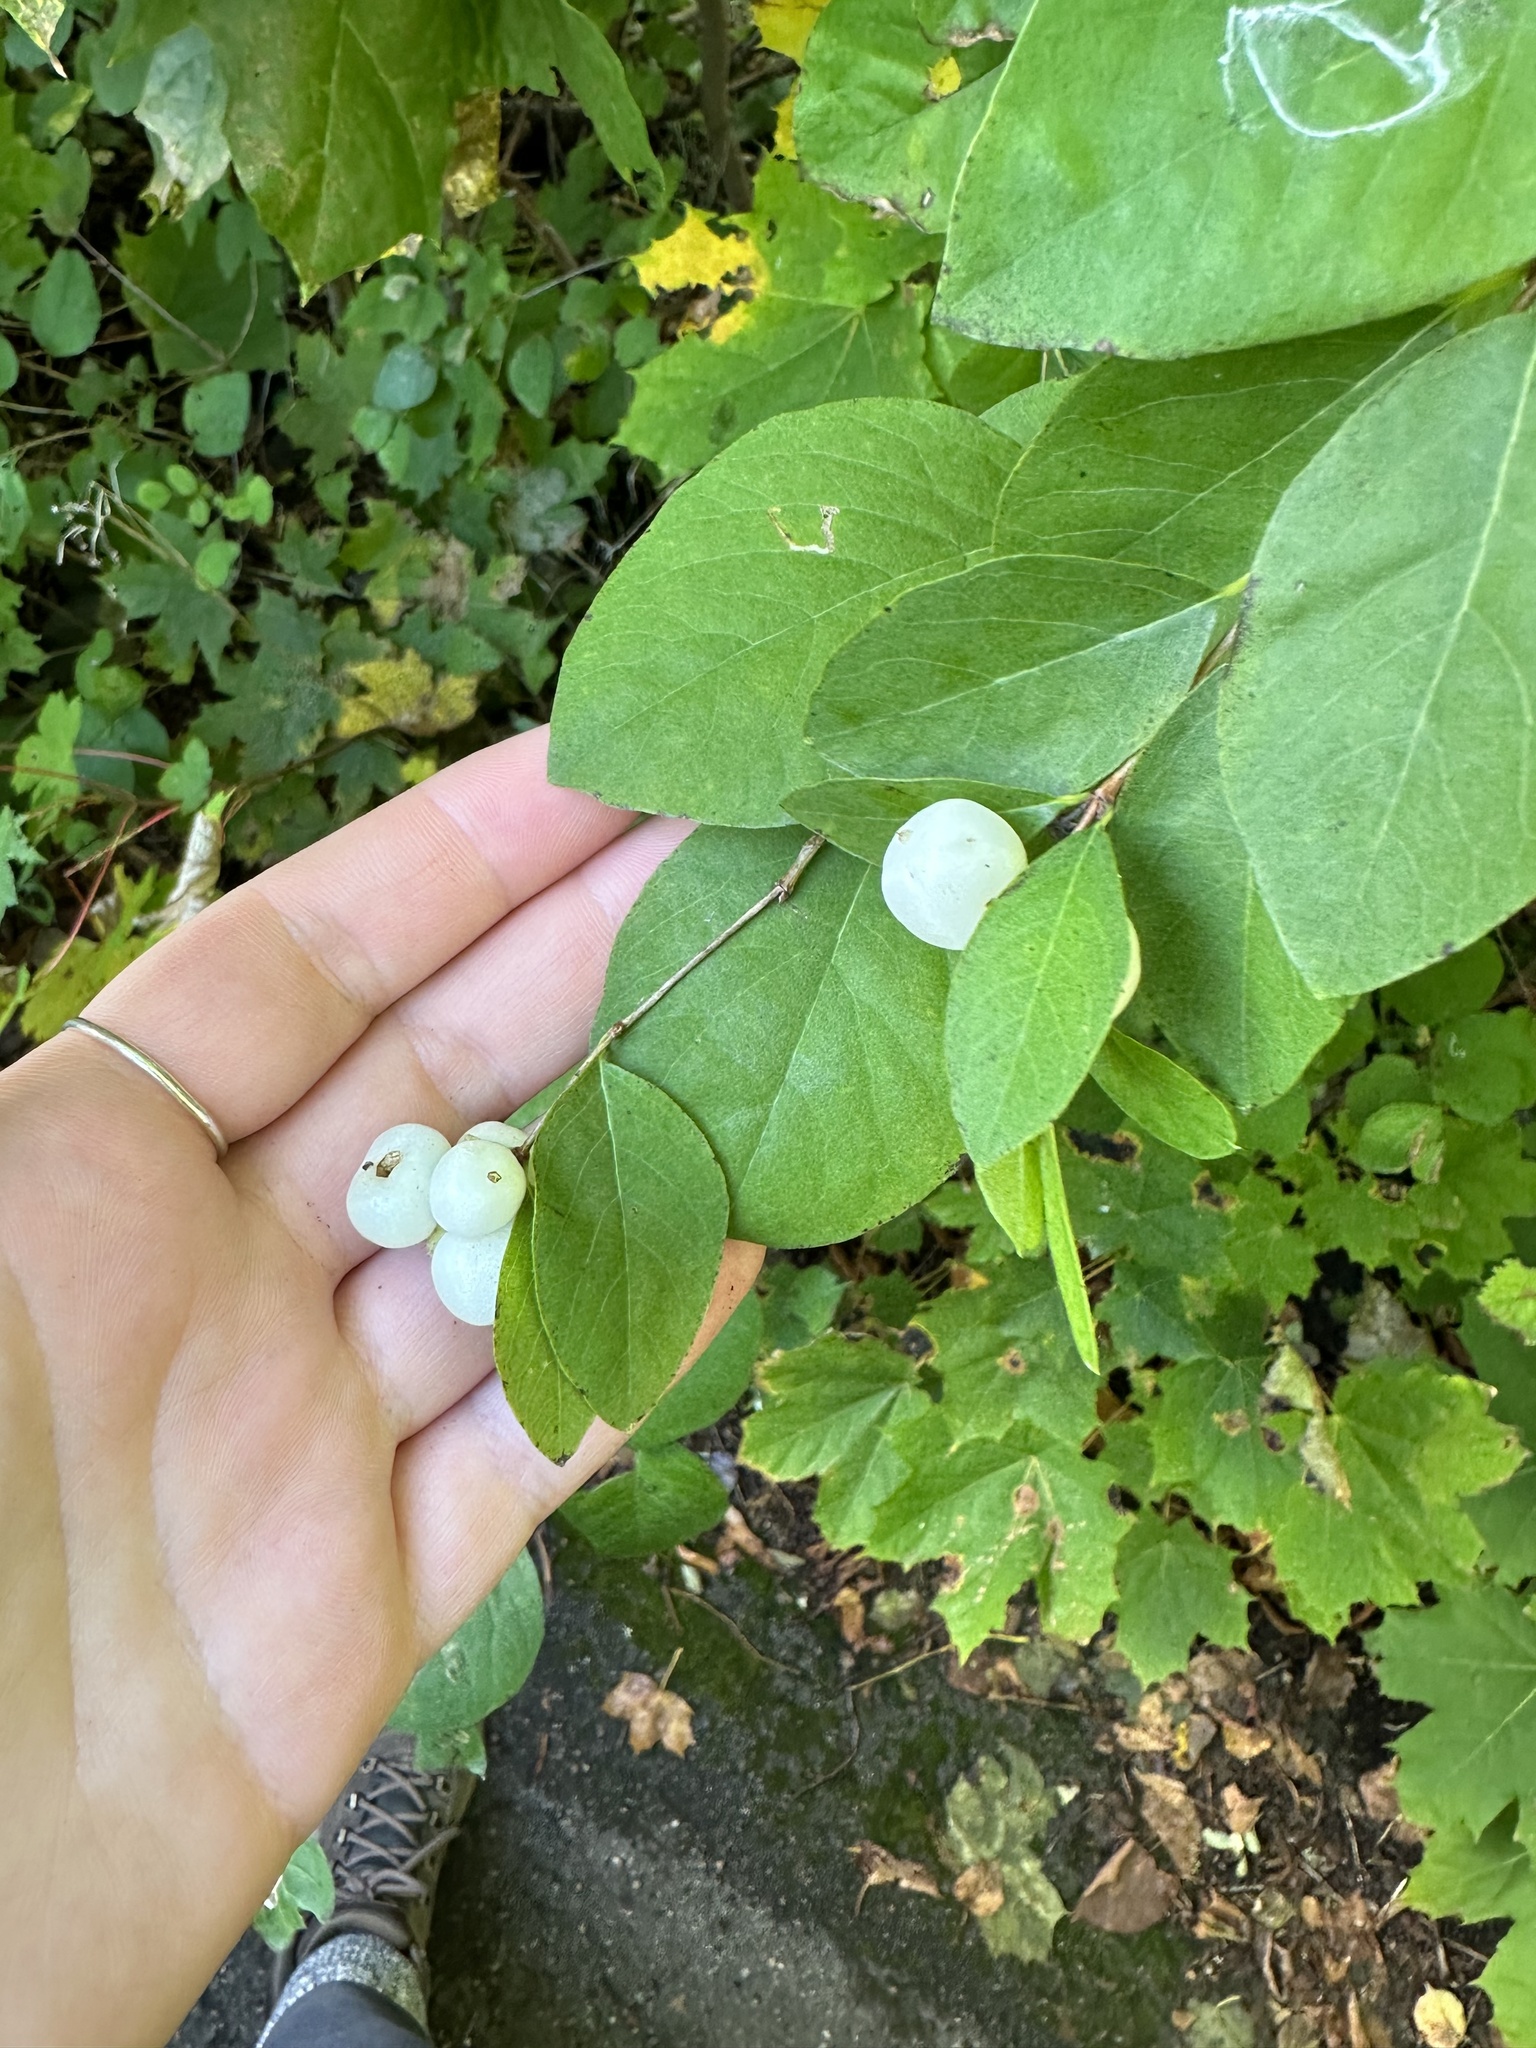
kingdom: Plantae
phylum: Tracheophyta
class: Magnoliopsida
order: Dipsacales
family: Caprifoliaceae
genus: Symphoricarpos
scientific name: Symphoricarpos albus
